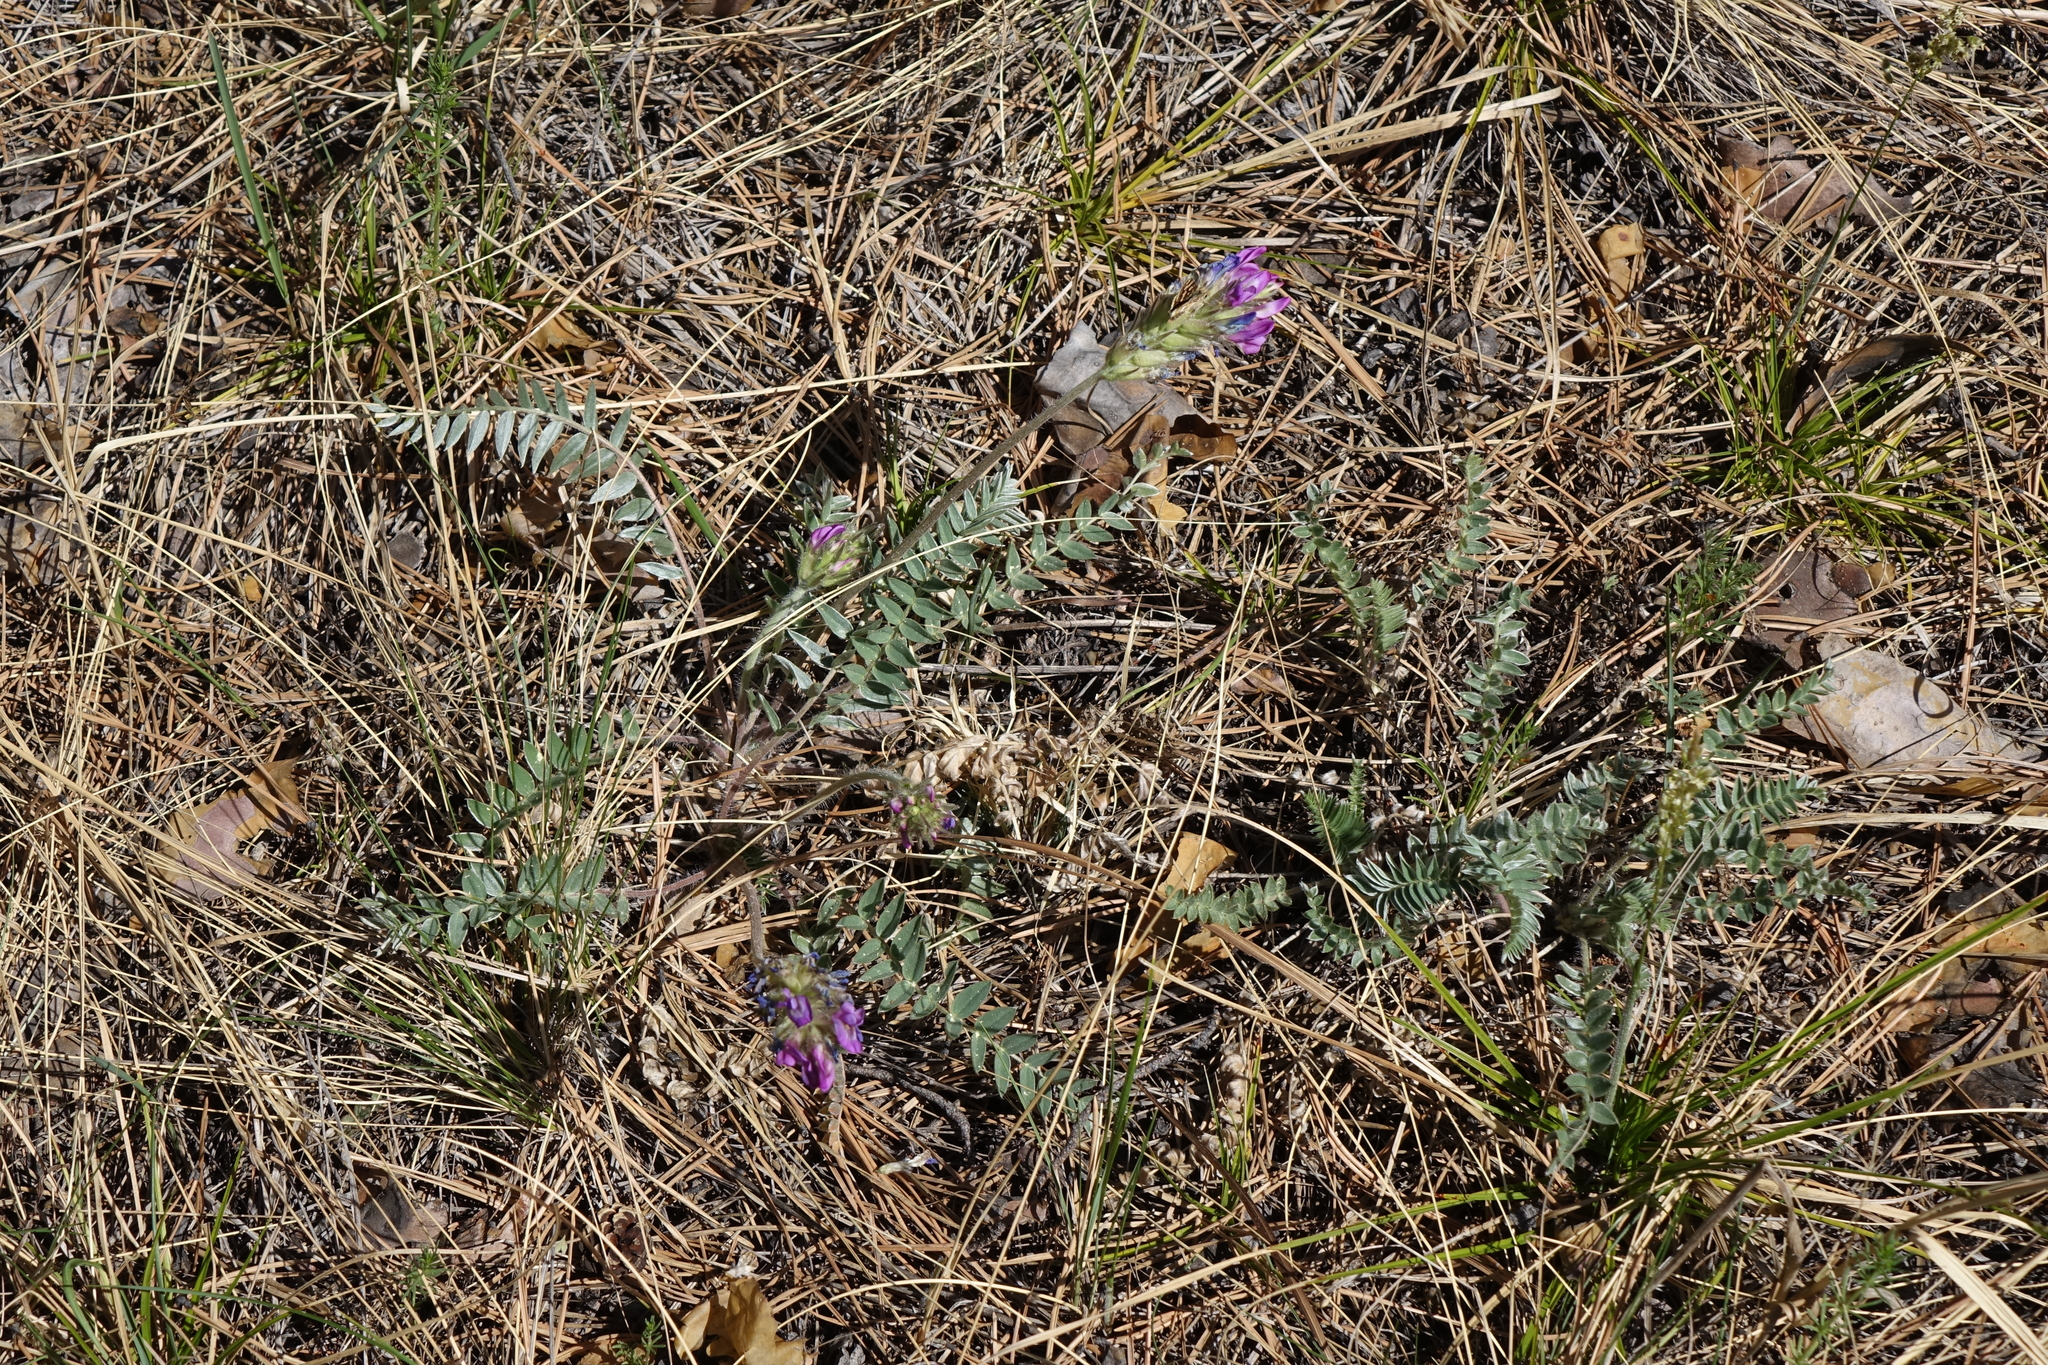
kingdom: Plantae
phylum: Tracheophyta
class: Magnoliopsida
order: Fabales
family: Fabaceae
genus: Oxytropis
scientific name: Oxytropis strobilacea
